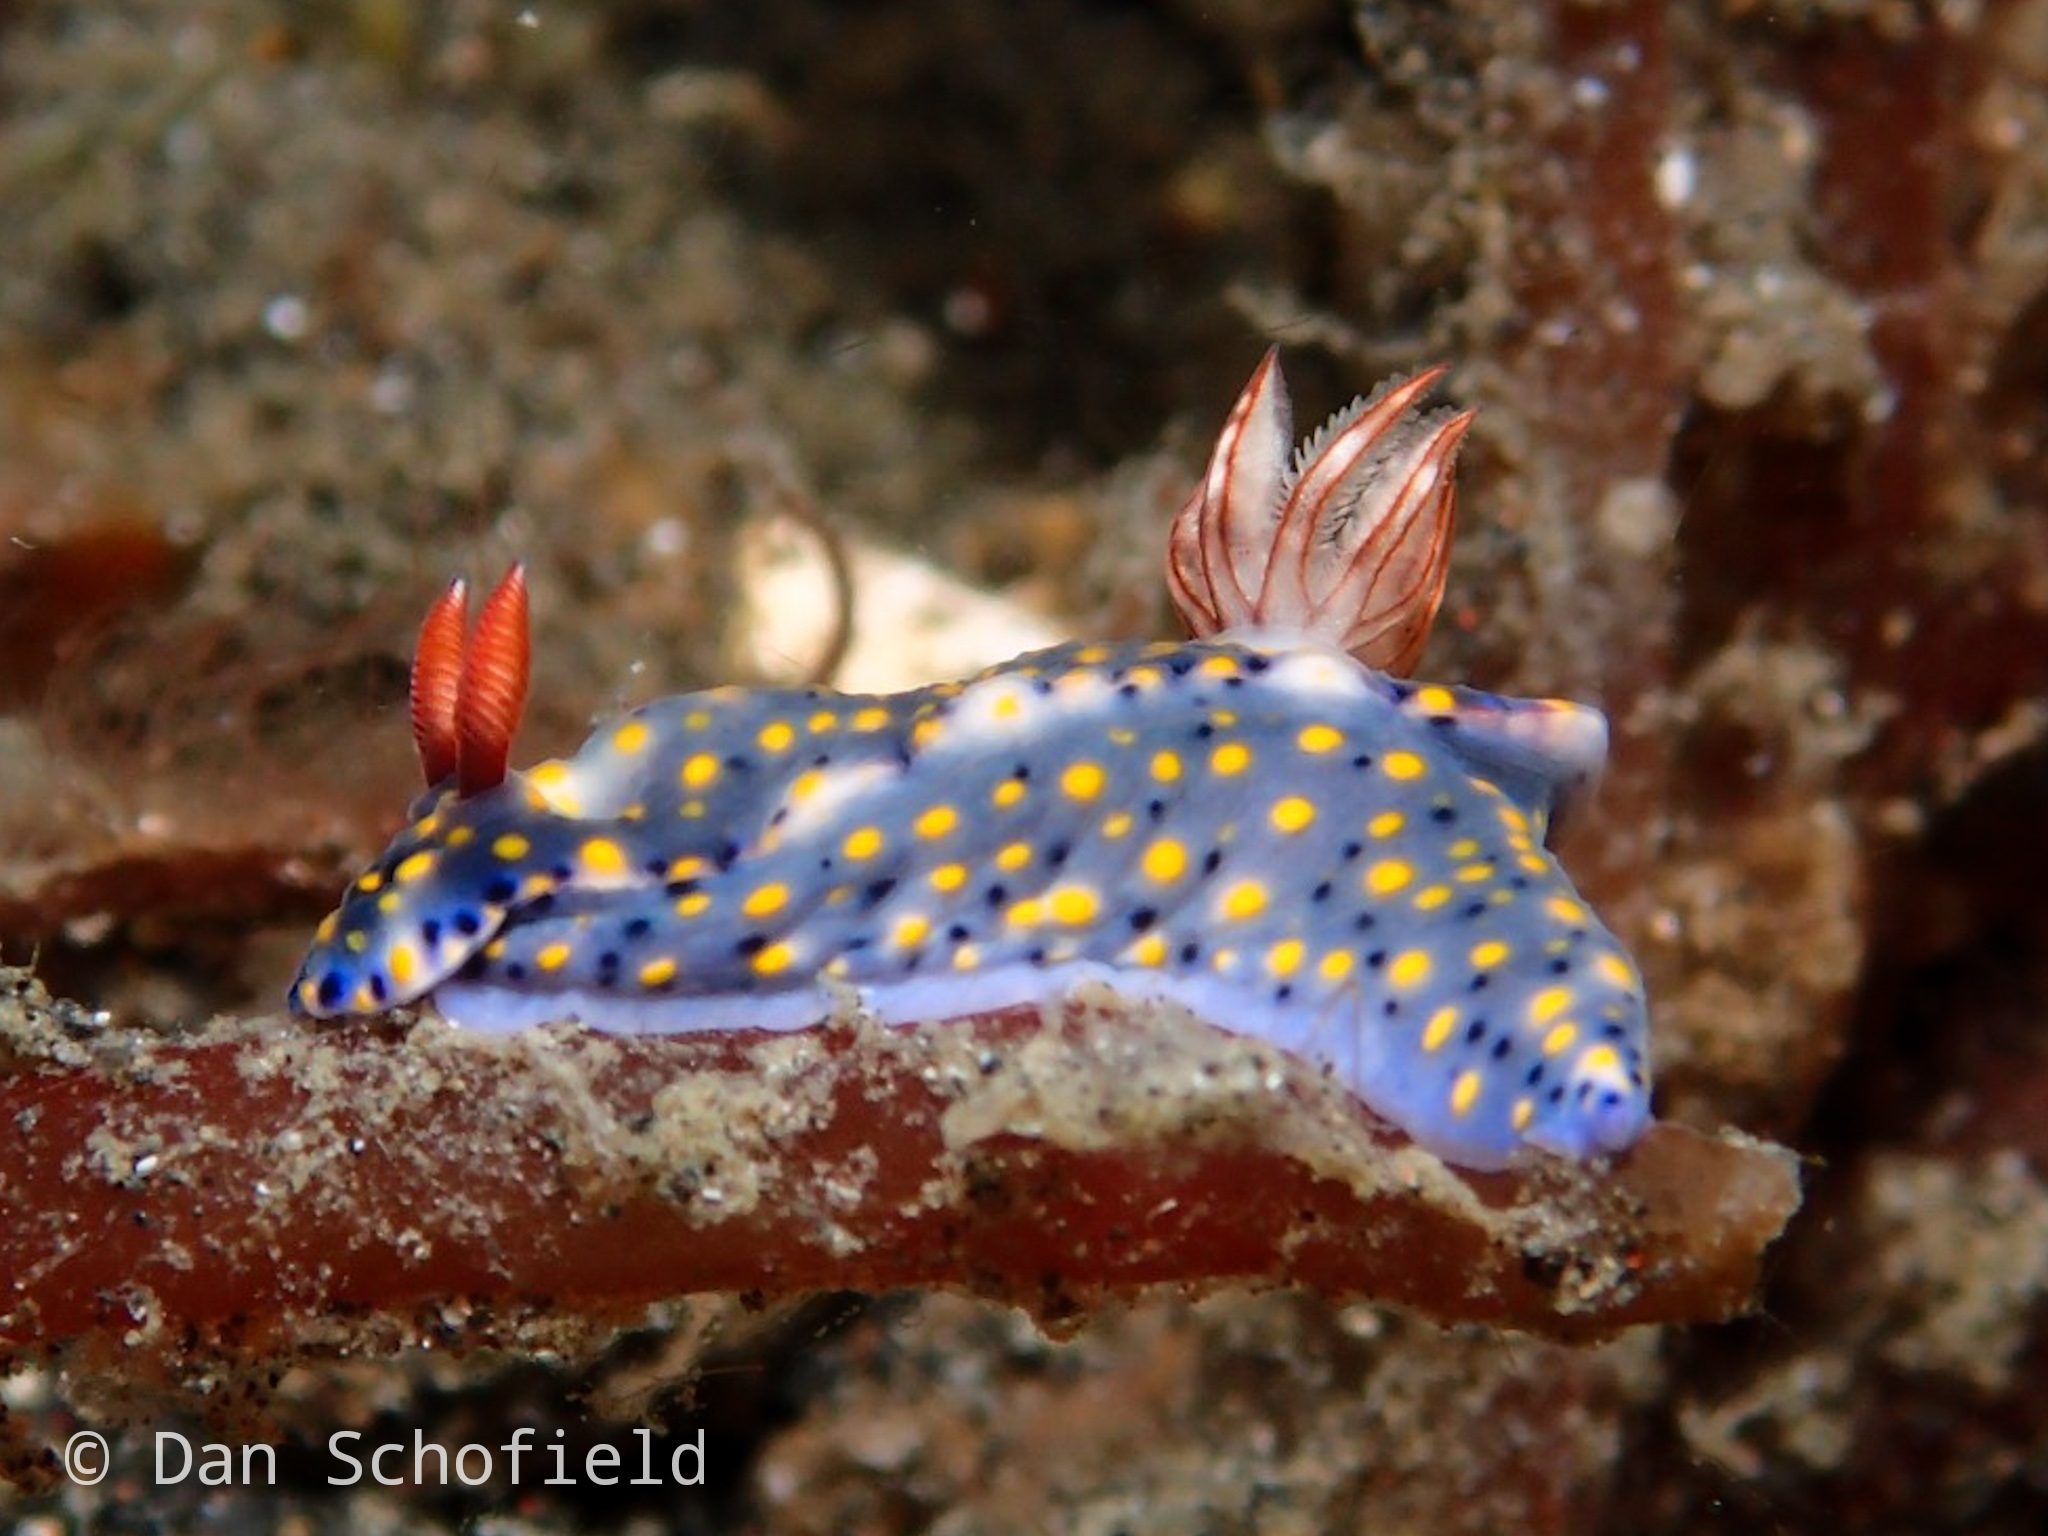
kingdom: Animalia
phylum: Mollusca
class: Gastropoda
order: Nudibranchia
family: Chromodorididae
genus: Hypselodoris
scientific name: Hypselodoris roo
